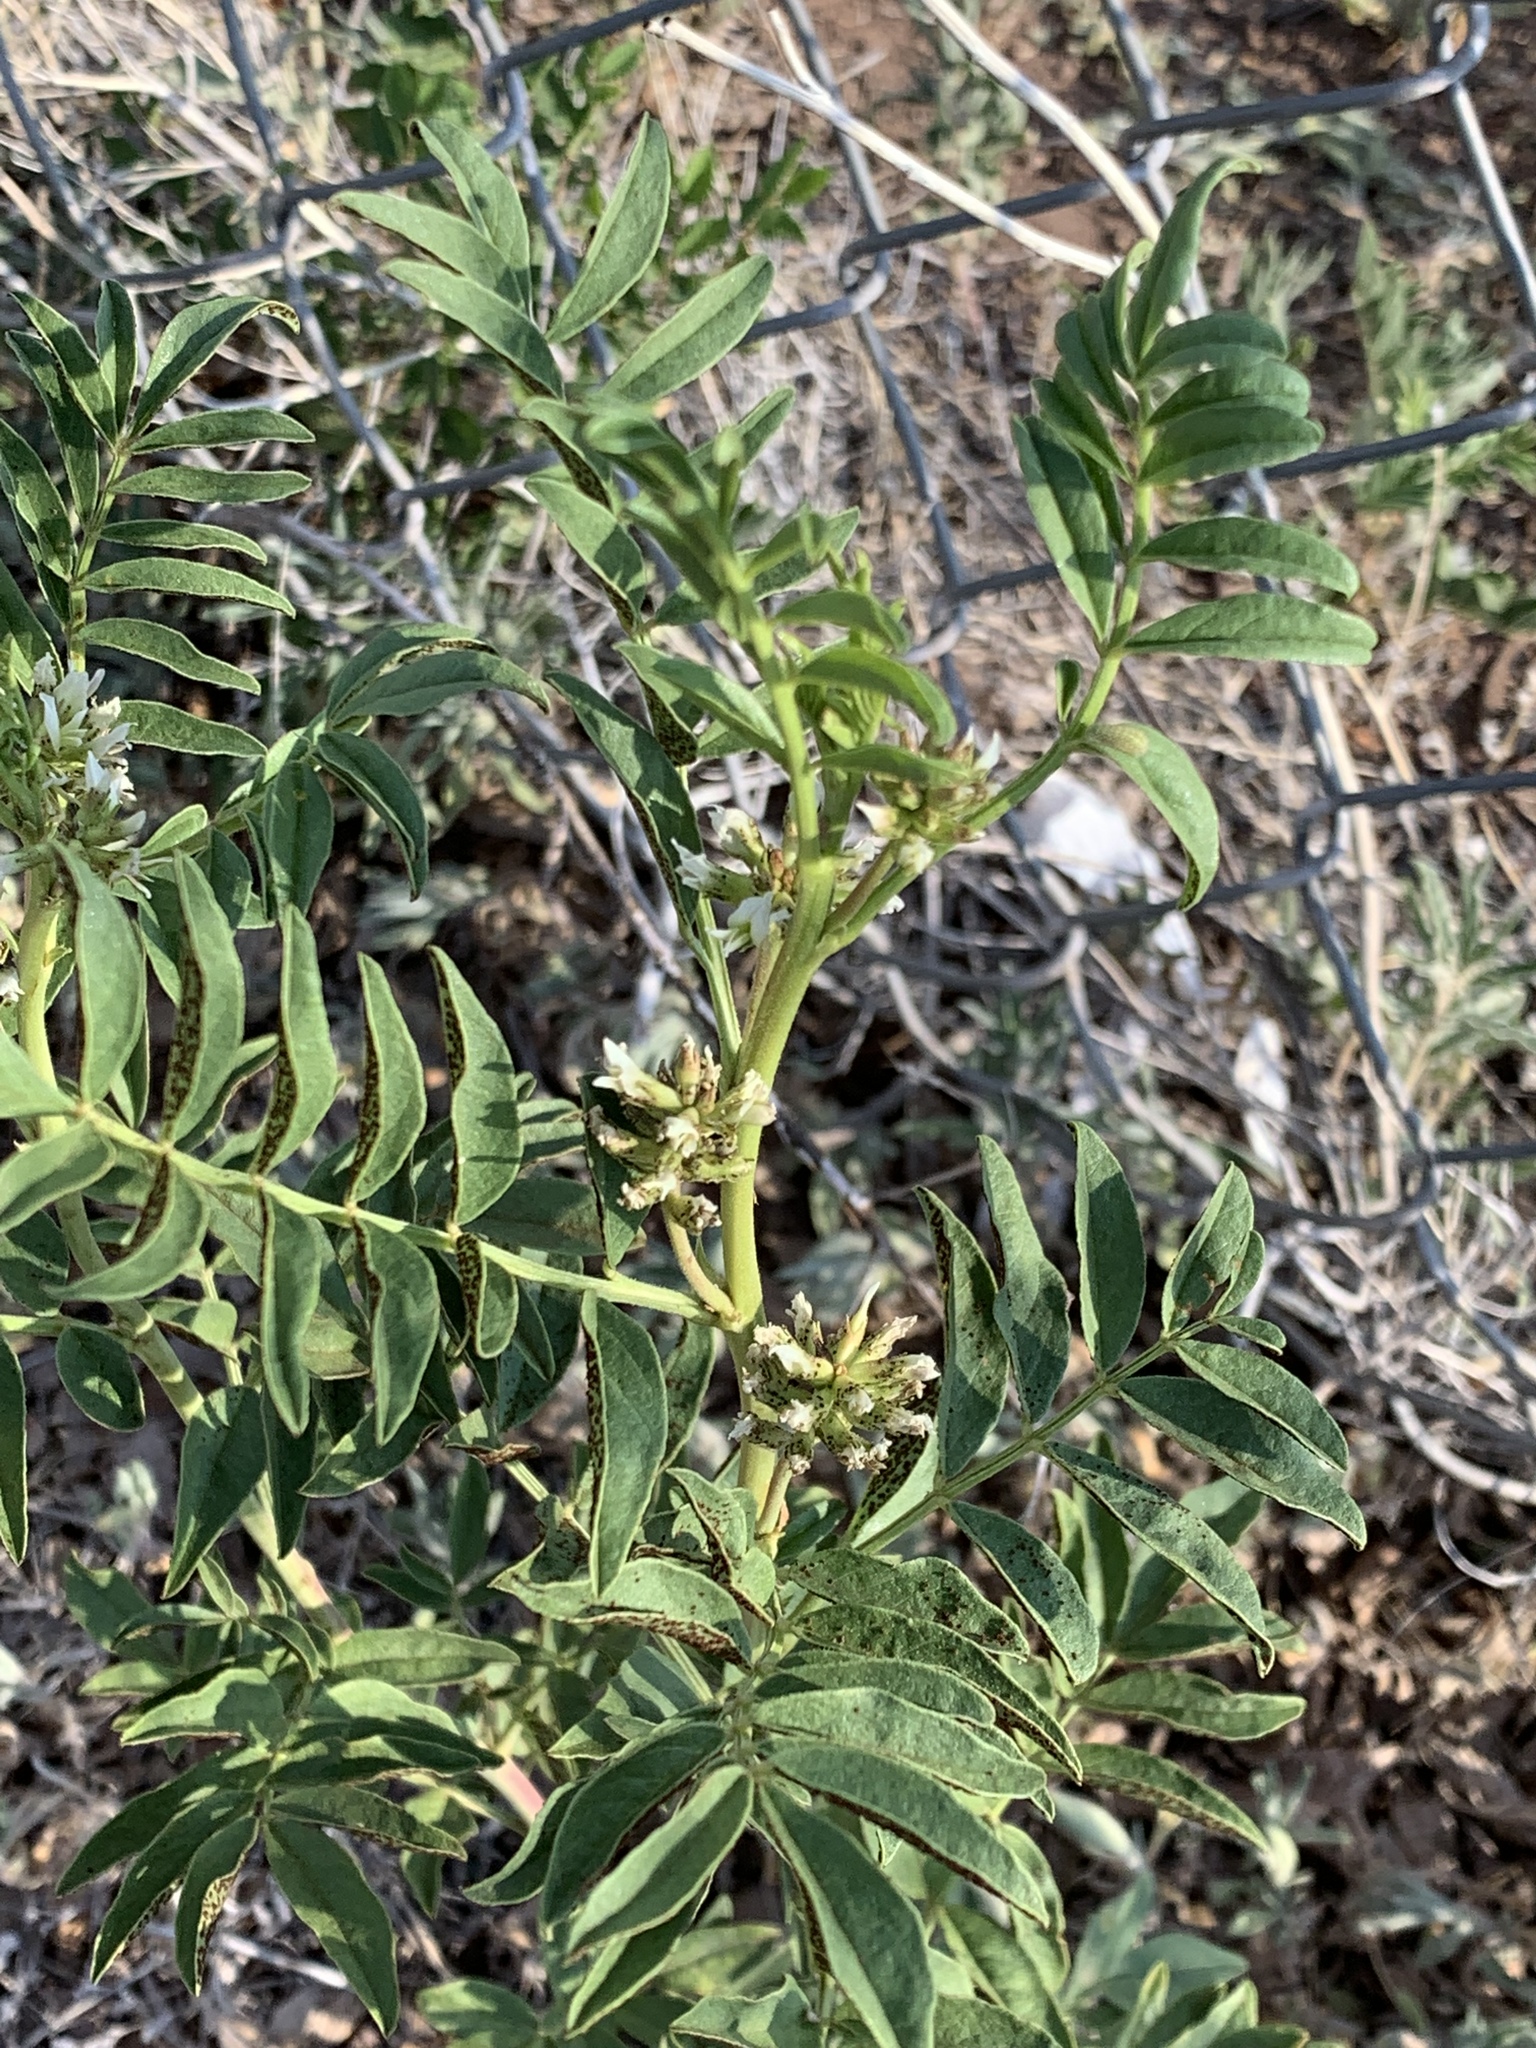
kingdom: Plantae
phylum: Tracheophyta
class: Magnoliopsida
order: Fabales
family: Fabaceae
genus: Glycyrrhiza
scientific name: Glycyrrhiza lepidota
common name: American liquorice
